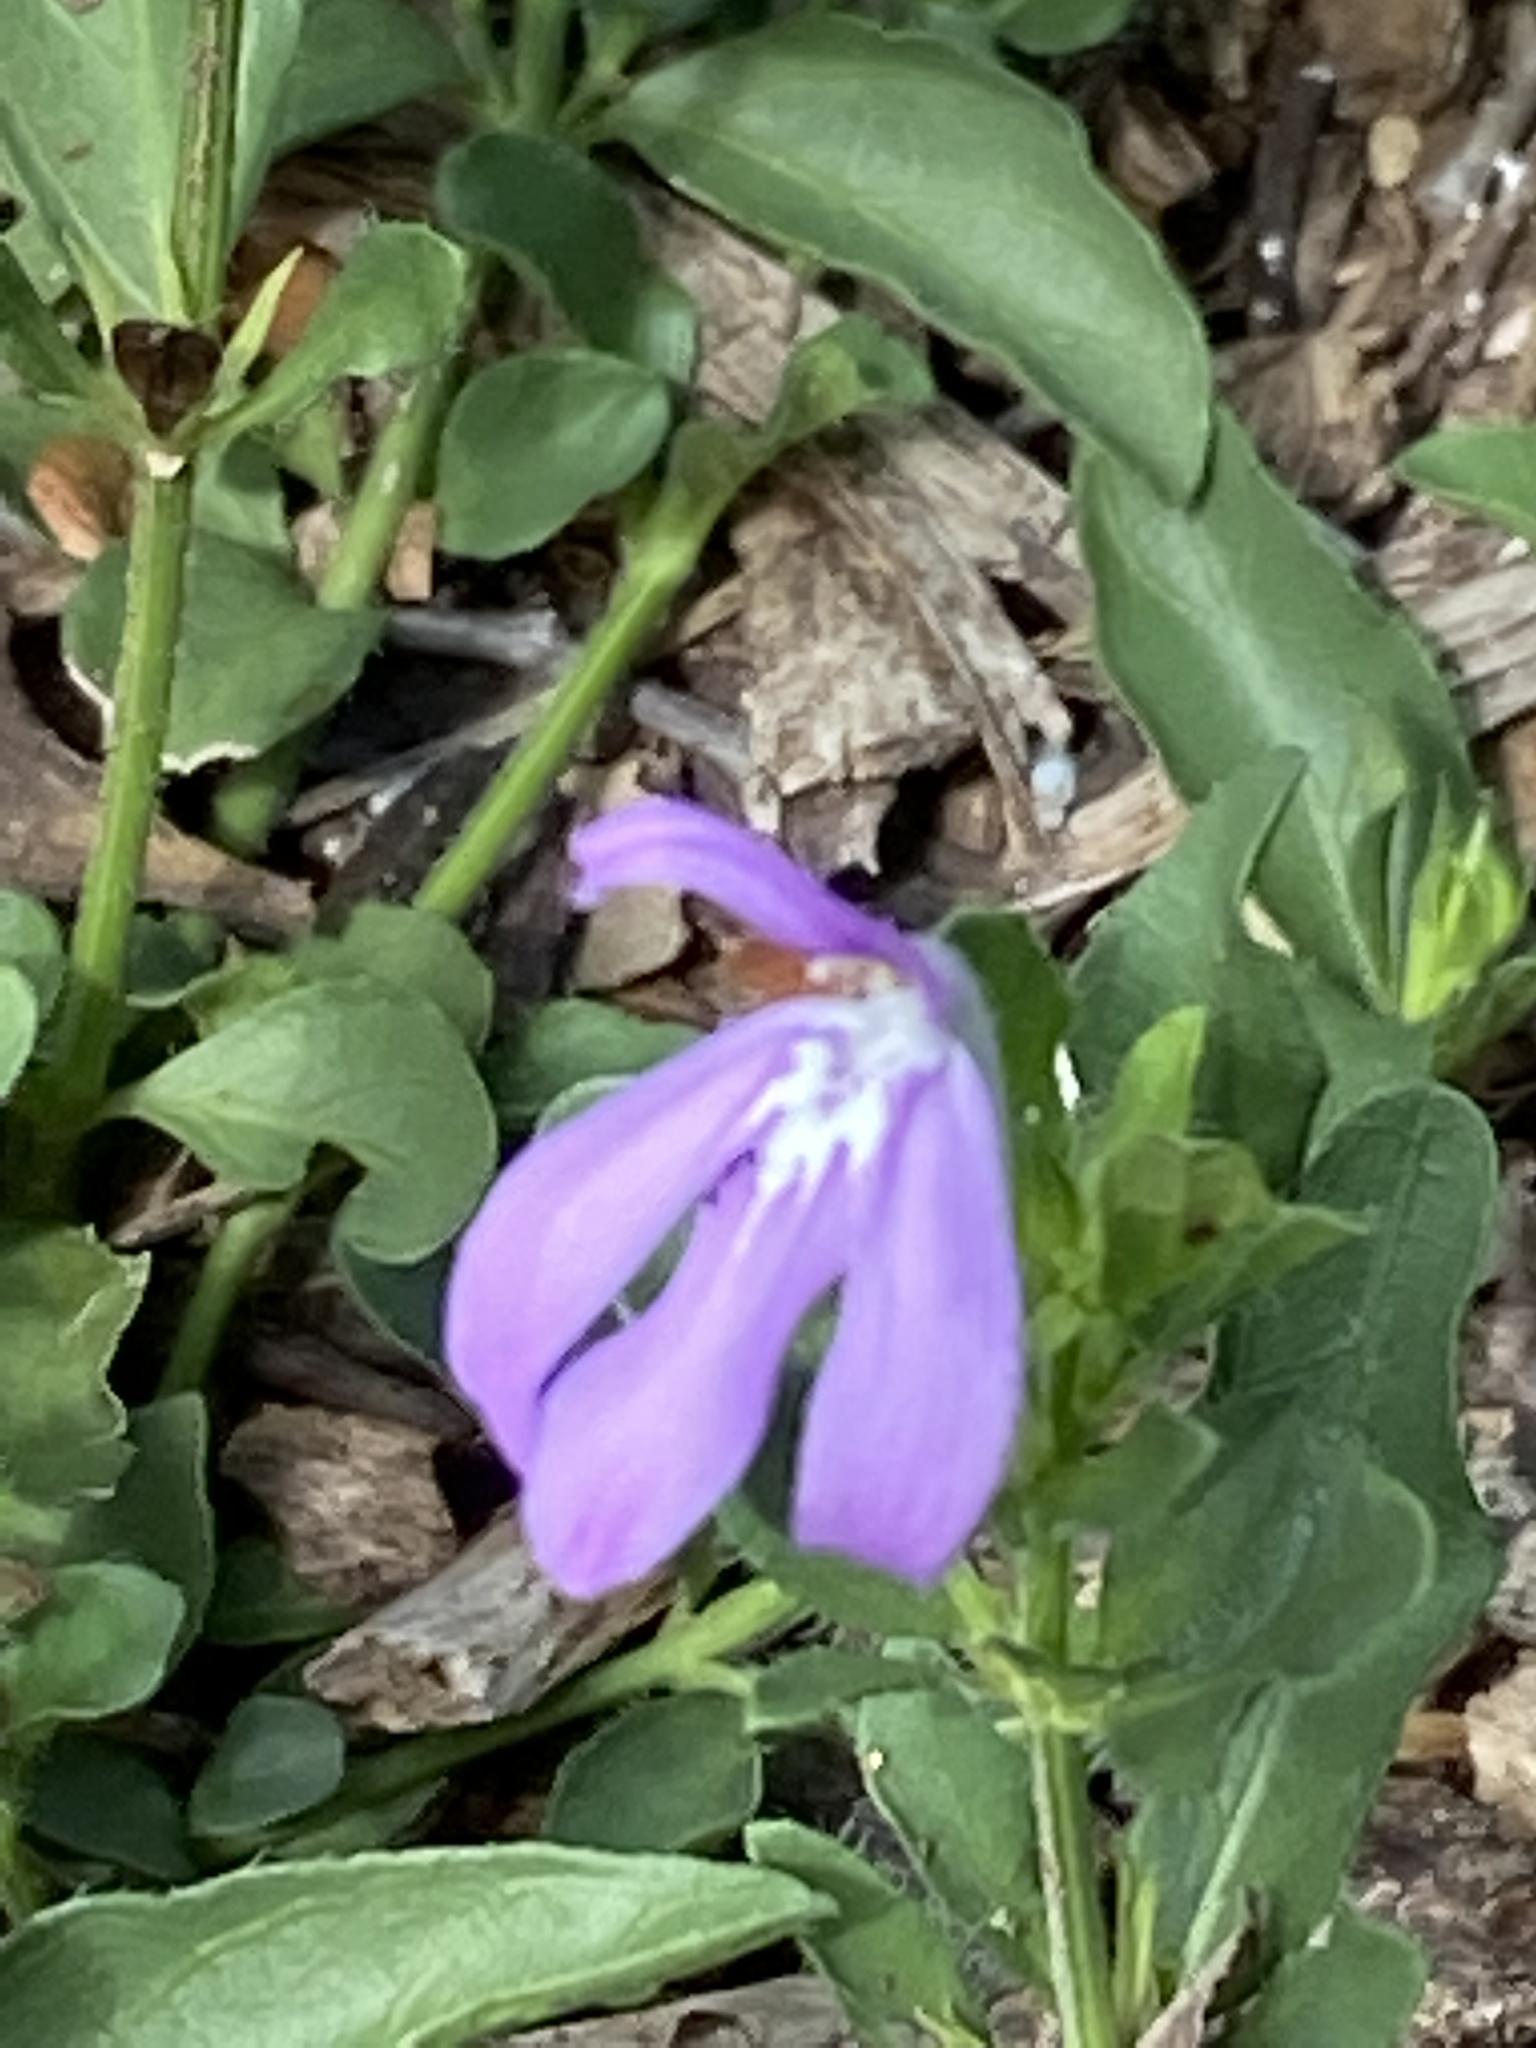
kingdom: Plantae
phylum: Tracheophyta
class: Magnoliopsida
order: Lamiales
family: Acanthaceae
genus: Justicia
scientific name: Justicia pilosella
